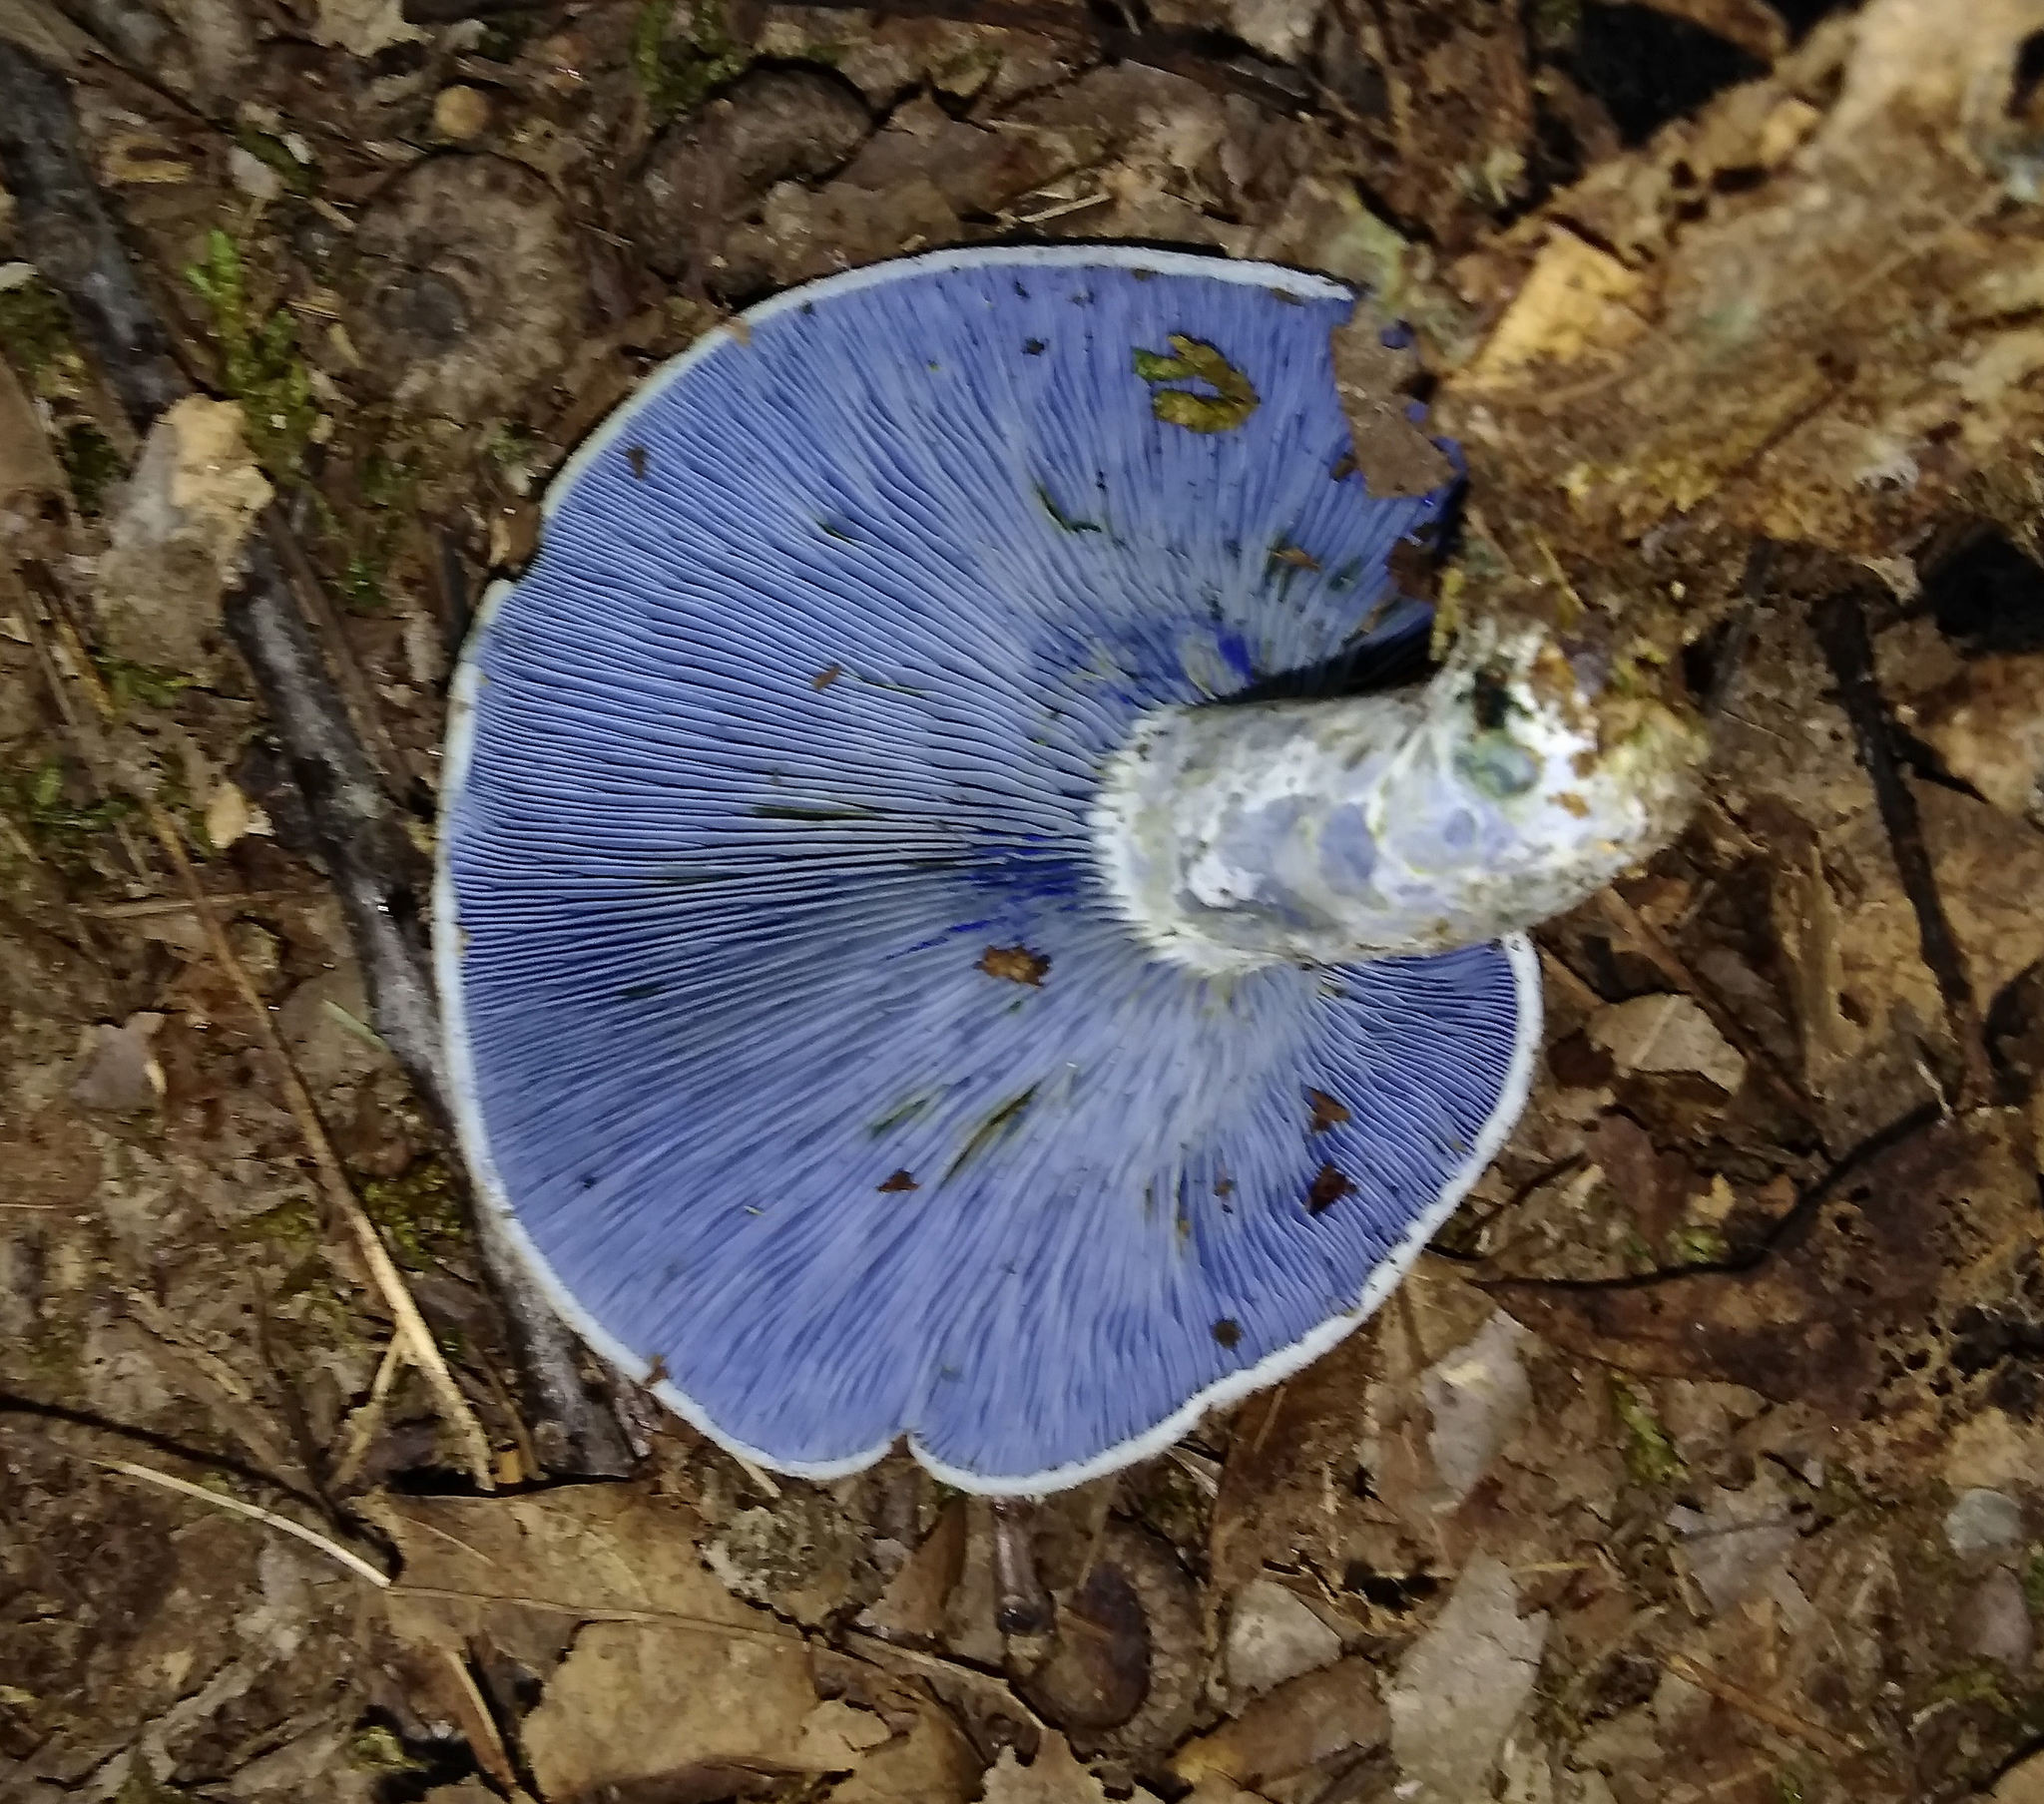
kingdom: Fungi
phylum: Basidiomycota
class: Agaricomycetes
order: Russulales
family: Russulaceae
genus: Lactarius
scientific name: Lactarius indigo
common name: Indigo milk cap
